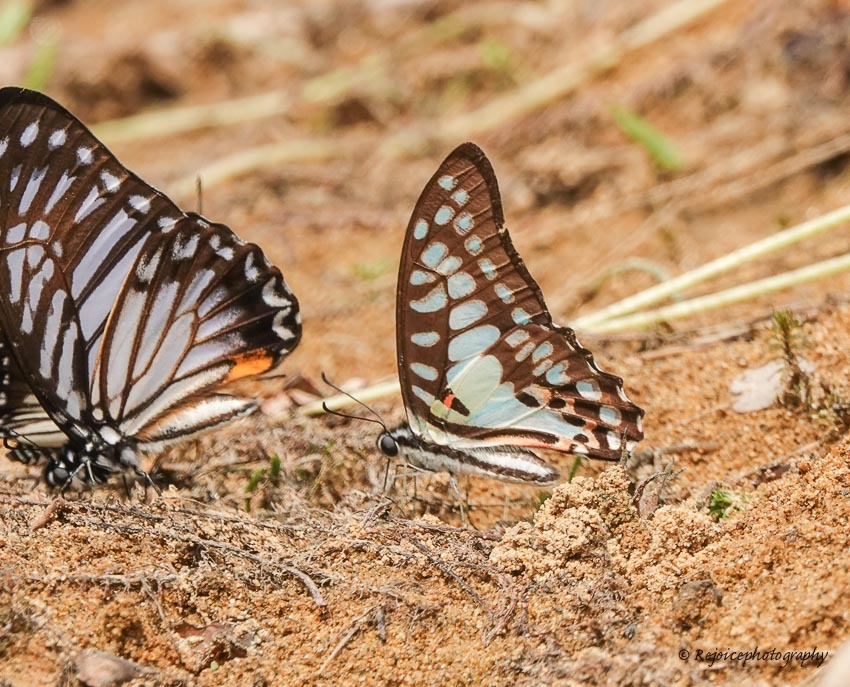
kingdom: Animalia
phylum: Arthropoda
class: Insecta
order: Lepidoptera
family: Papilionidae
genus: Graphium
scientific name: Graphium doson
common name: Common jay
